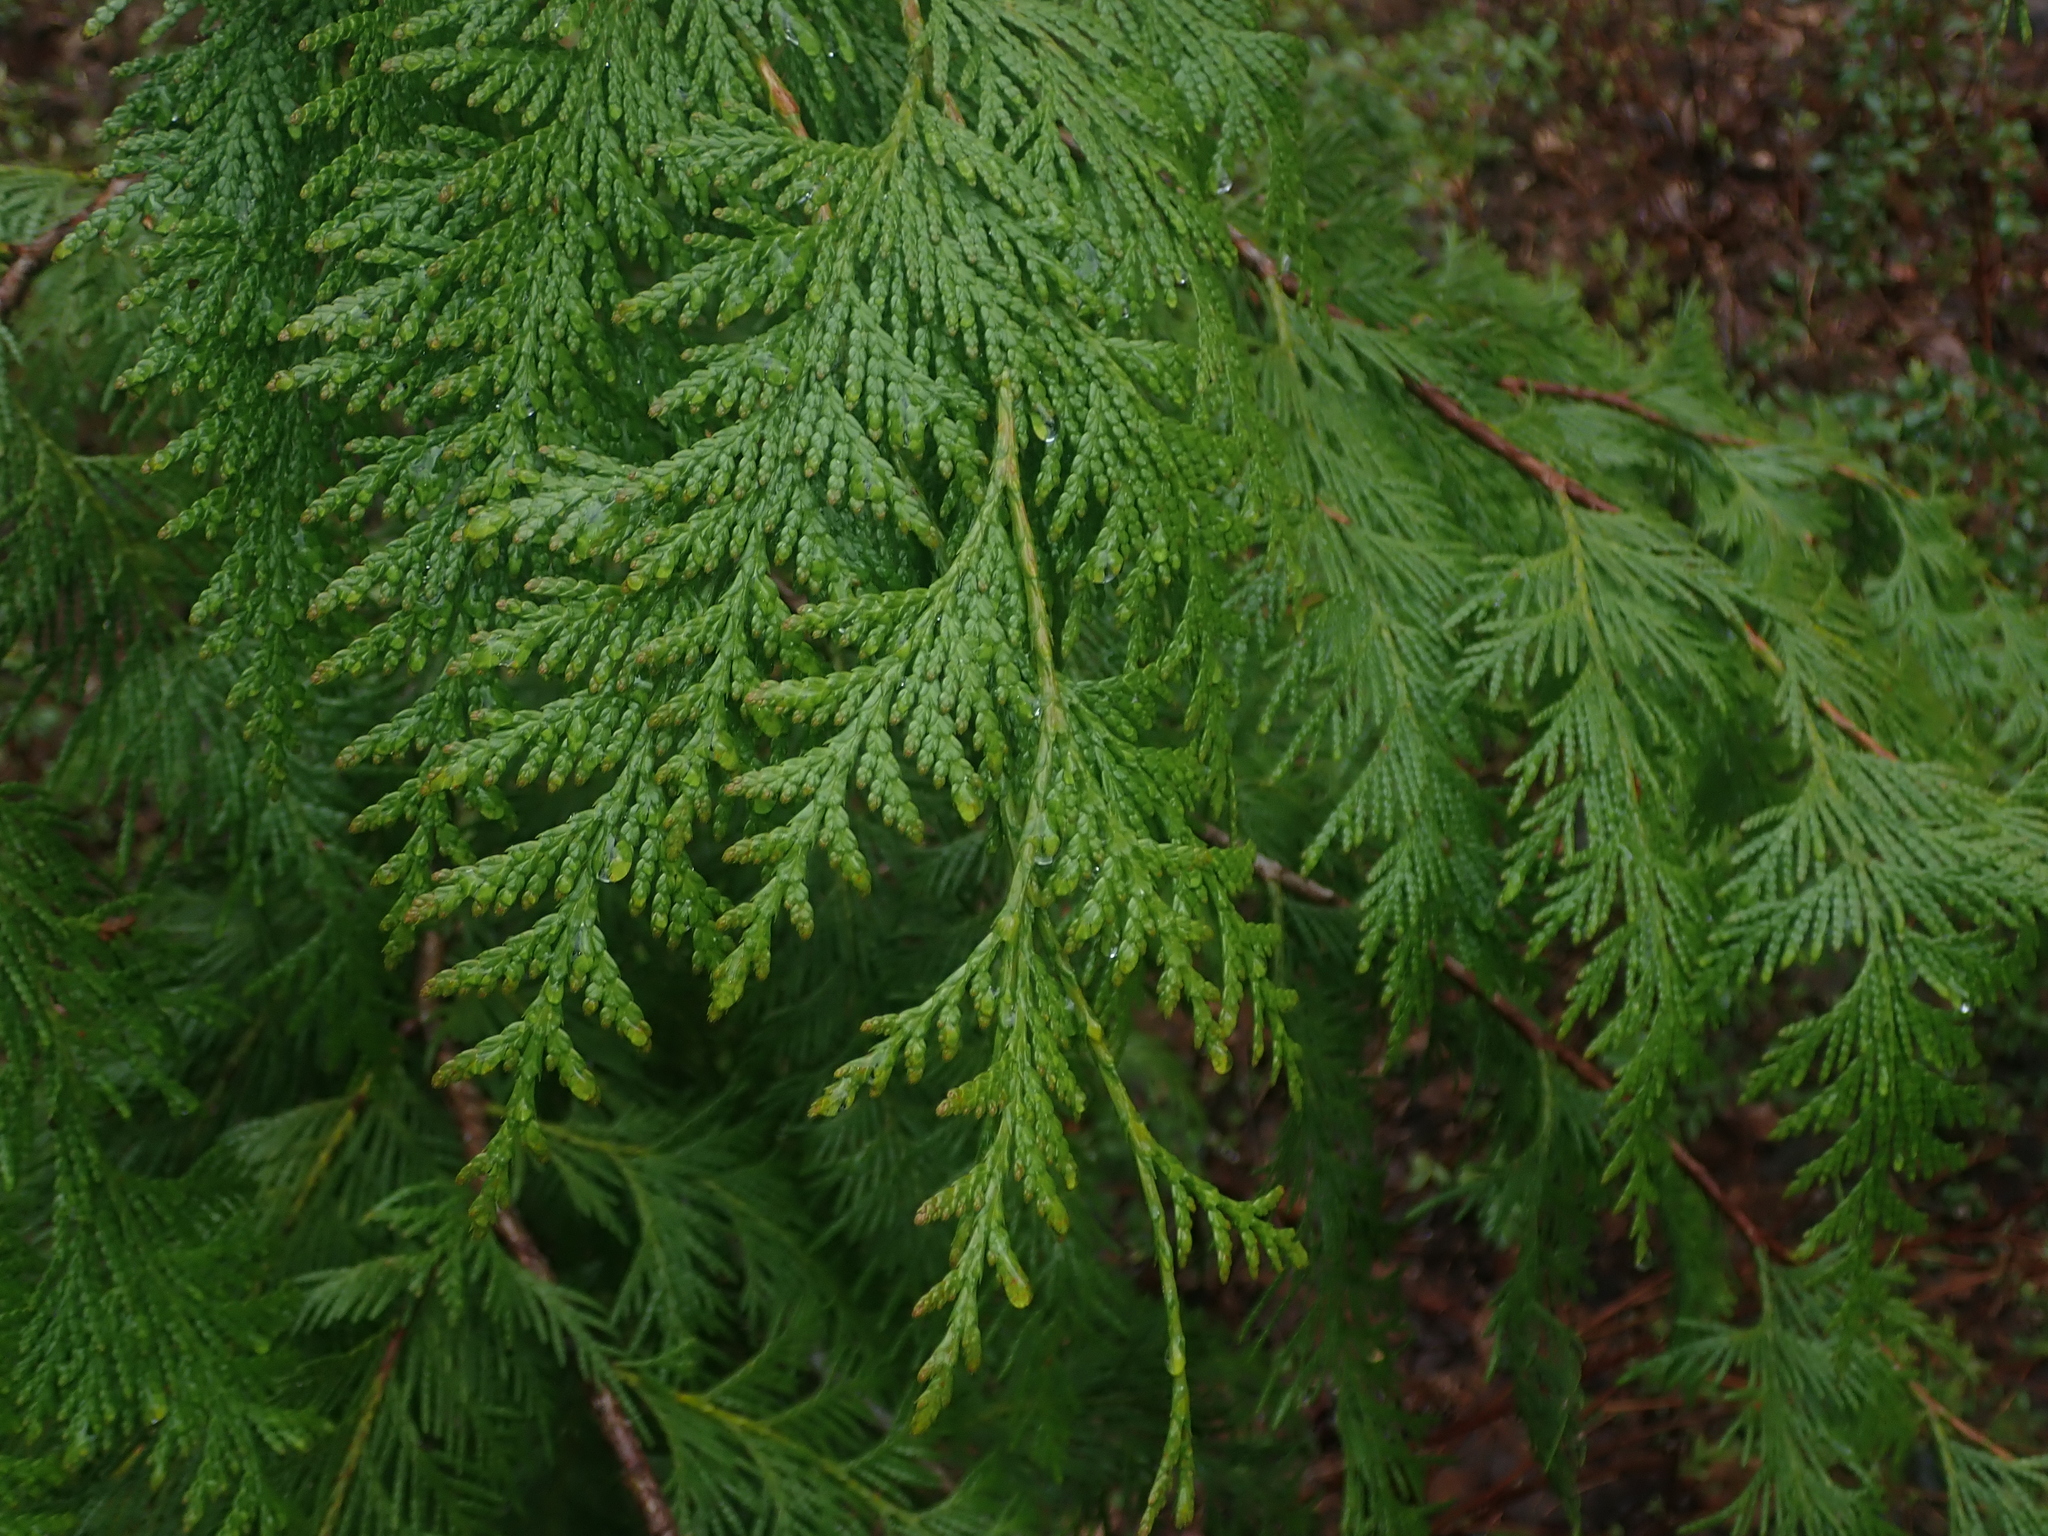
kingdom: Plantae
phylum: Tracheophyta
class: Pinopsida
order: Pinales
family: Cupressaceae
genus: Thuja
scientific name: Thuja plicata
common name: Western red-cedar
